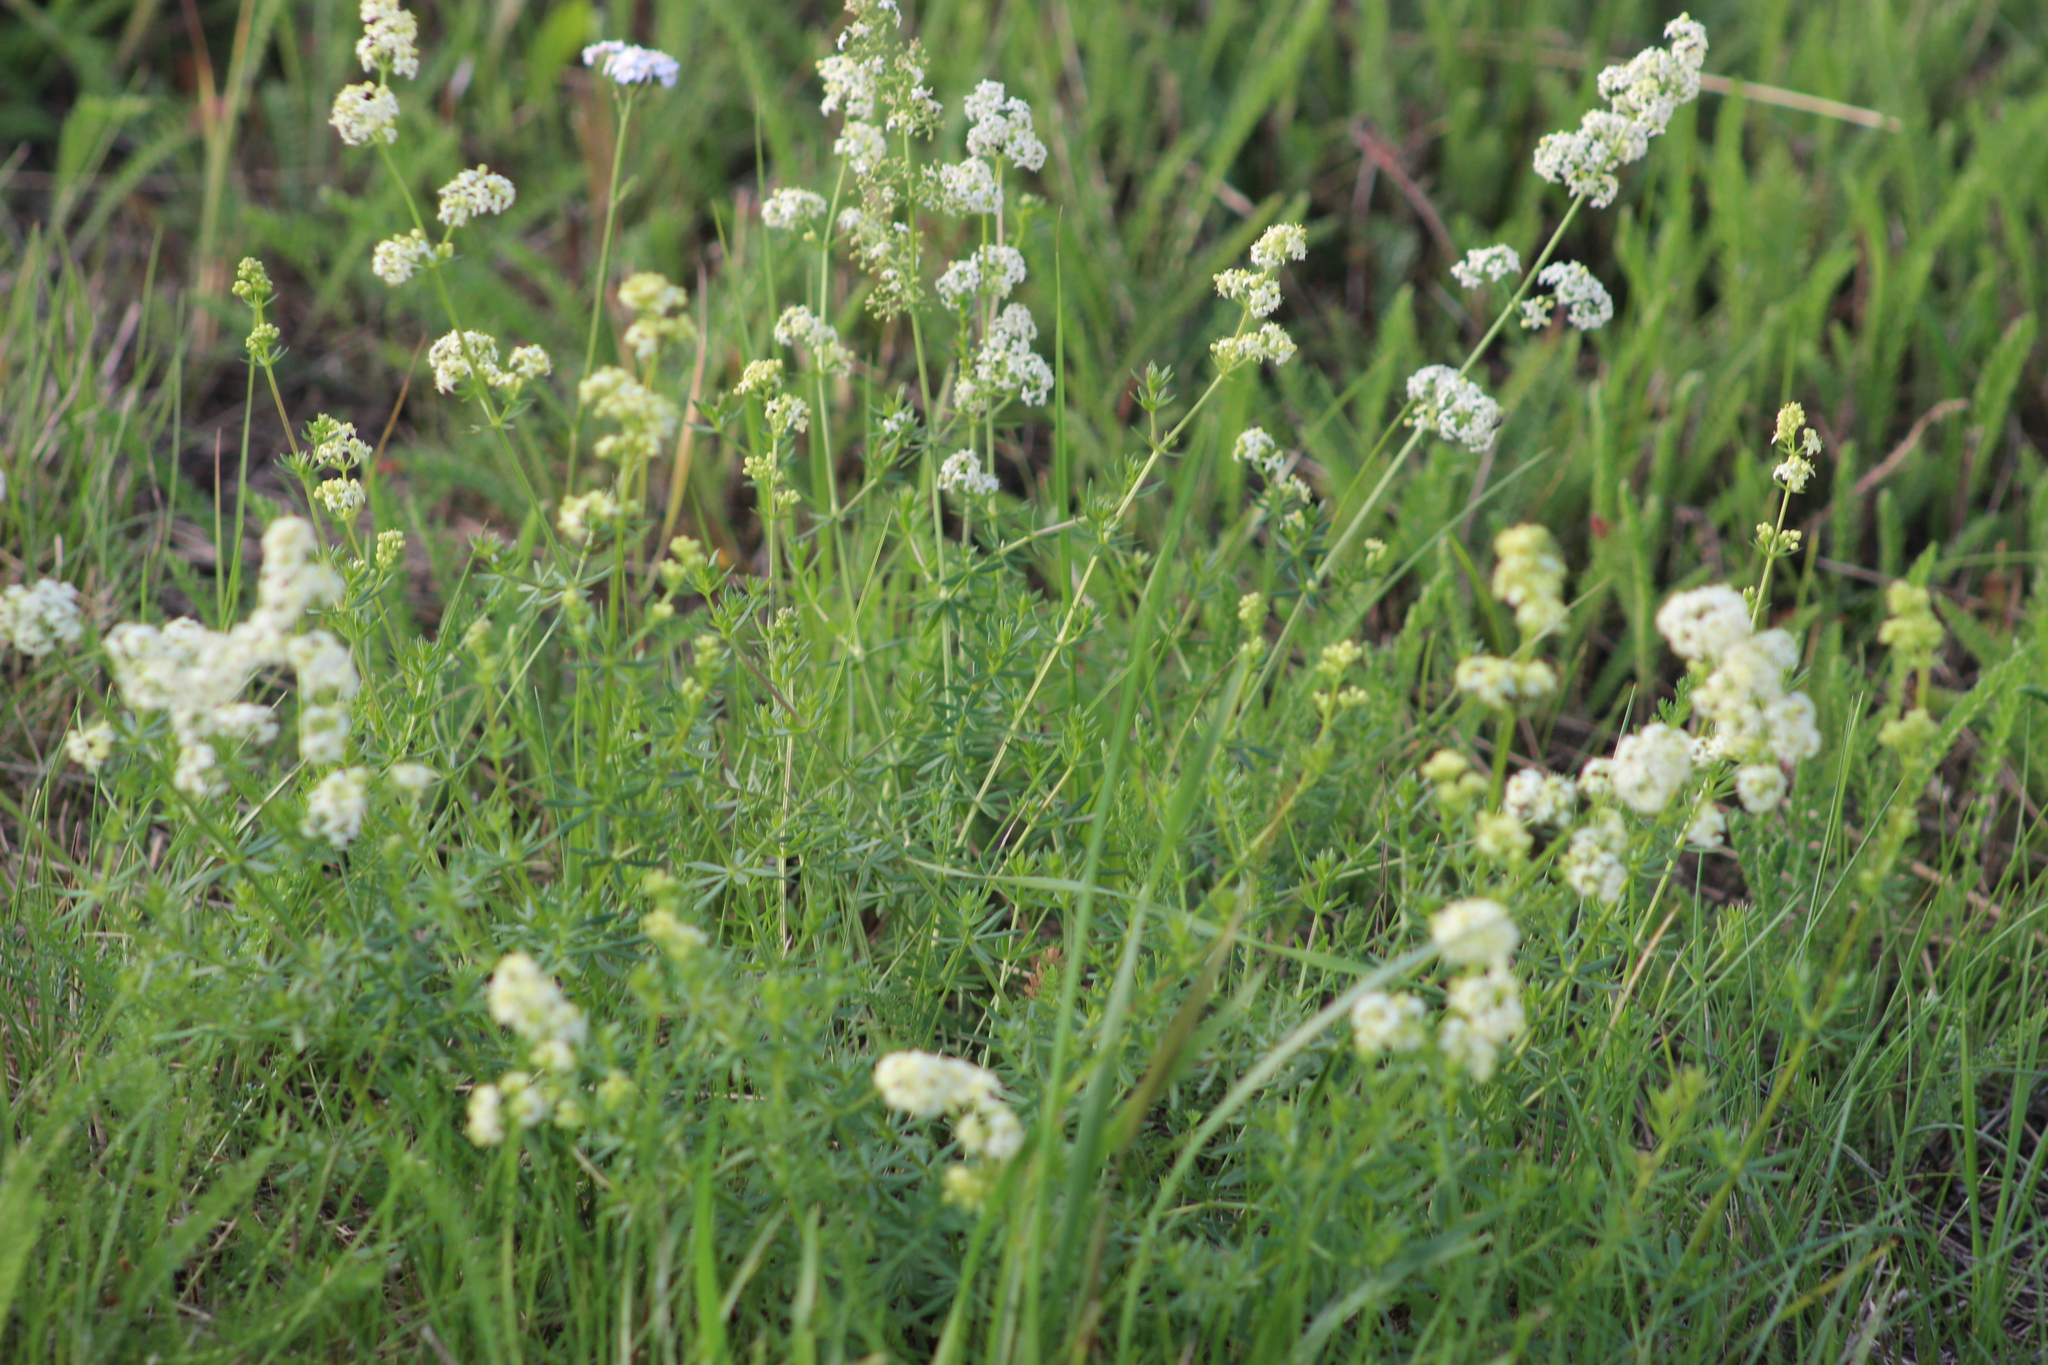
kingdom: Plantae
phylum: Tracheophyta
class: Magnoliopsida
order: Gentianales
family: Rubiaceae
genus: Galium
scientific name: Galium mollugo
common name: Hedge bedstraw
